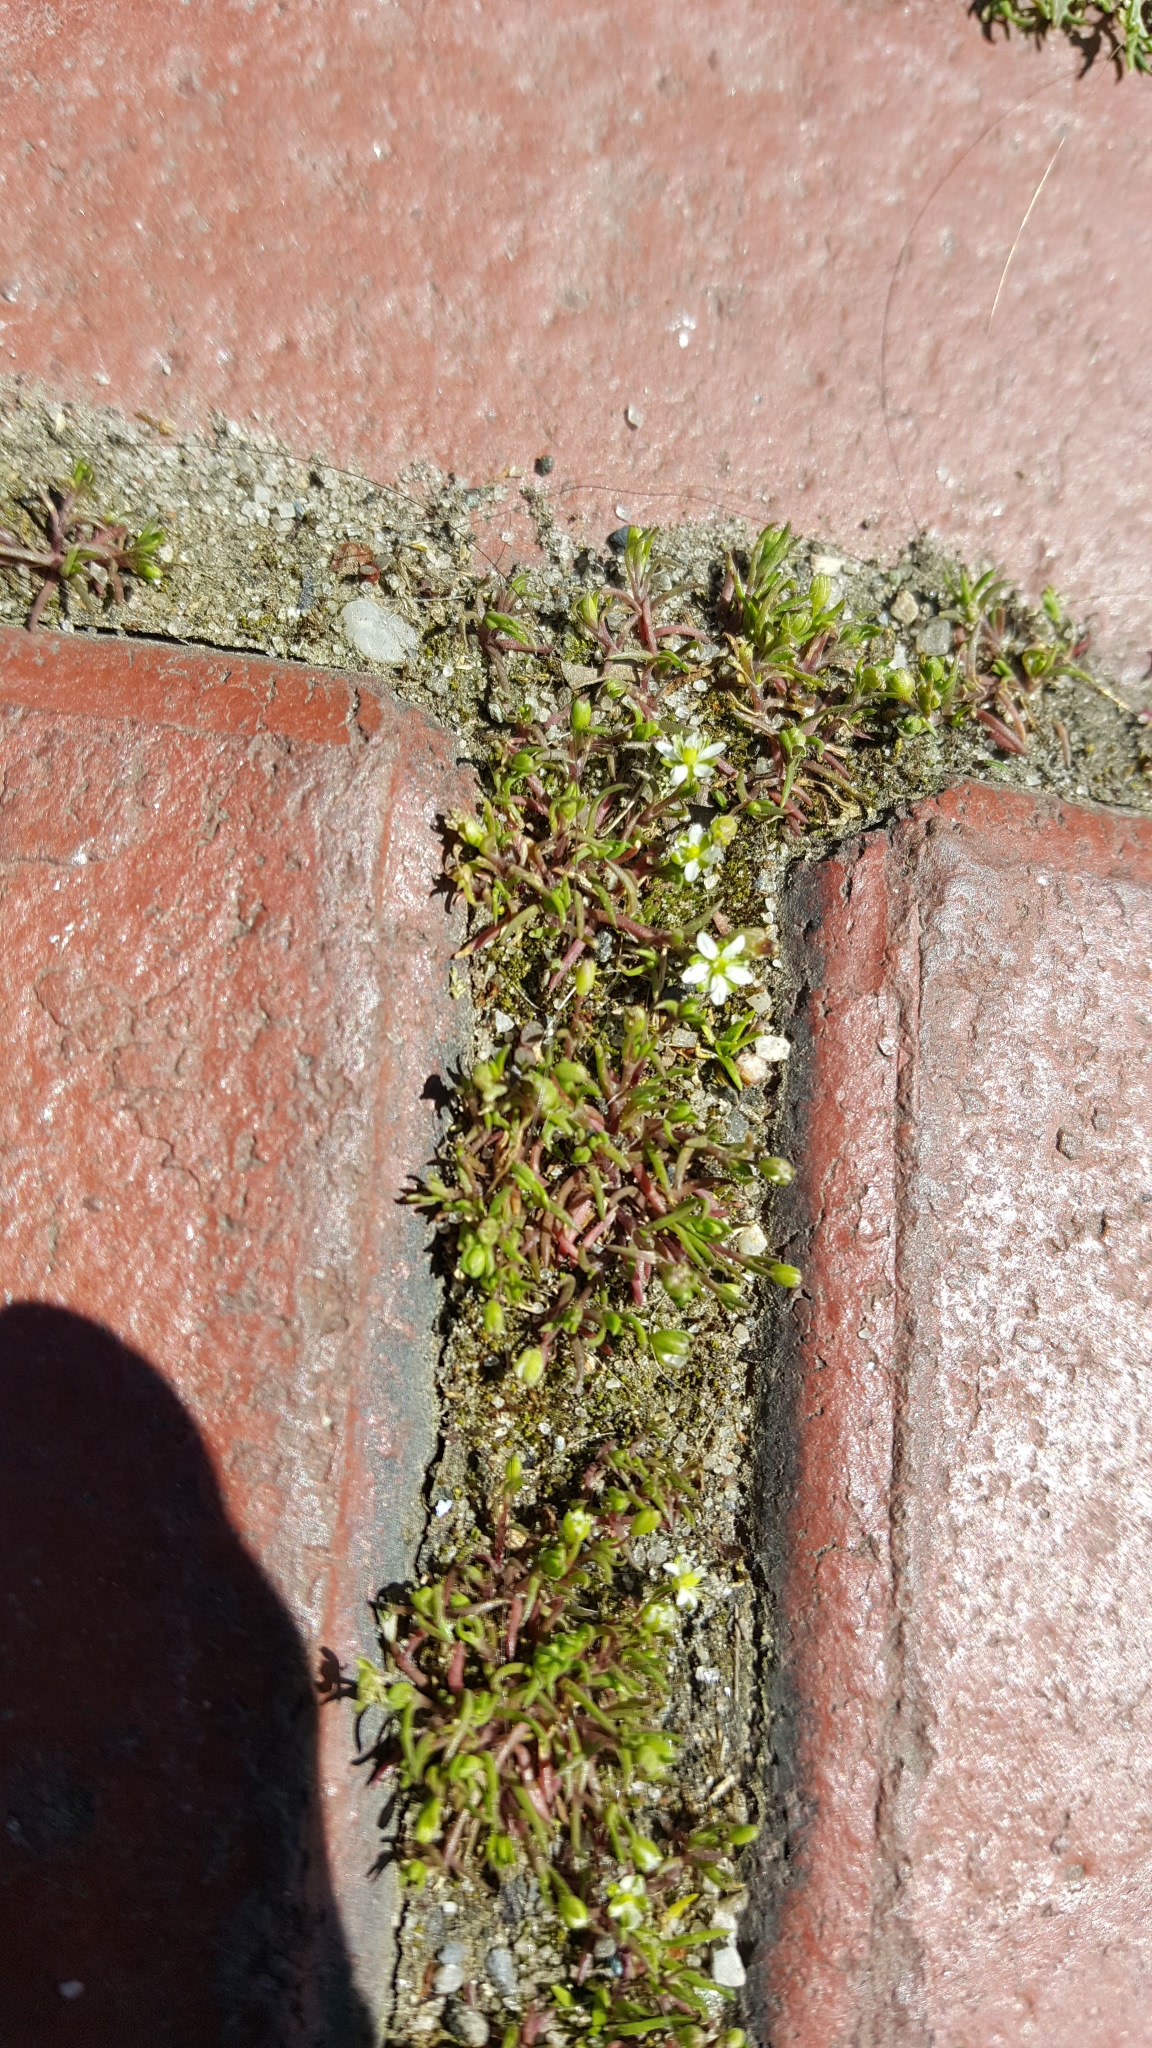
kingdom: Plantae
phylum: Tracheophyta
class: Magnoliopsida
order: Caryophyllales
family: Caryophyllaceae
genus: Sagina
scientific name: Sagina japonica
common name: Japanese pearlwort
